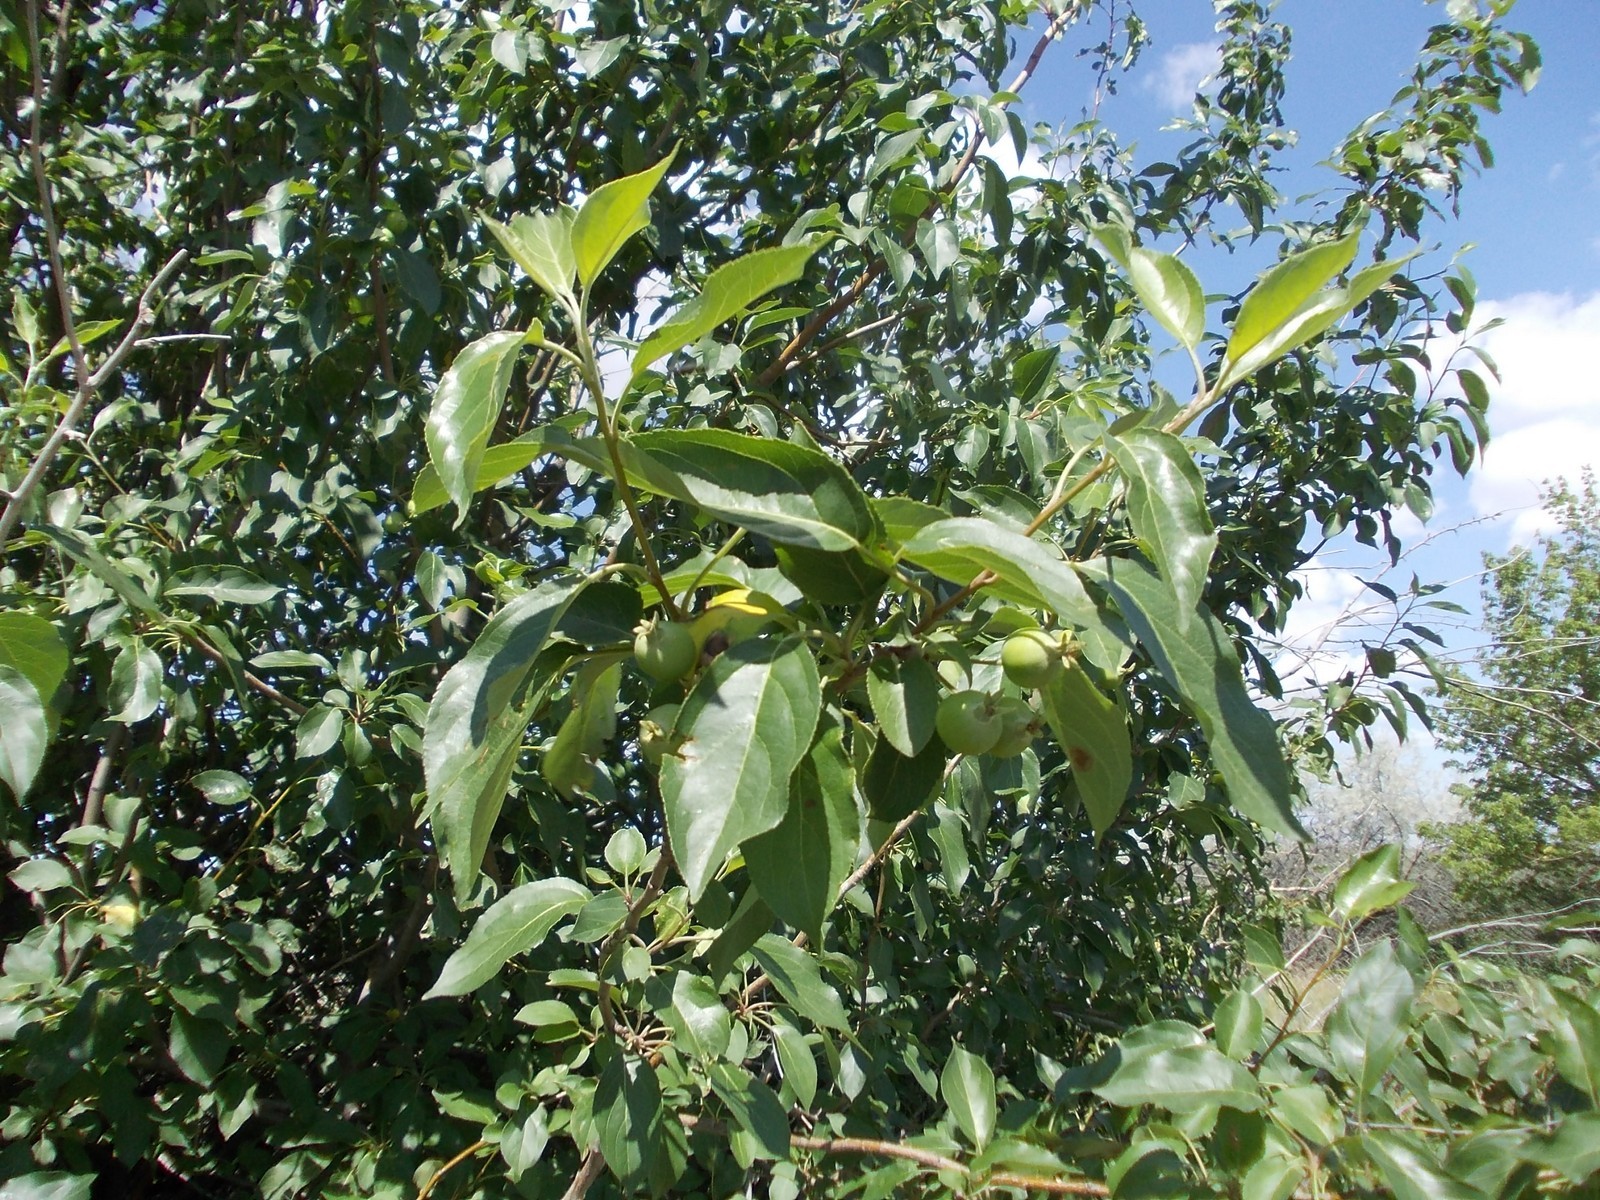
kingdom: Plantae
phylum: Tracheophyta
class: Magnoliopsida
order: Rosales
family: Rosaceae
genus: Malus
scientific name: Malus domestica
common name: Apple
